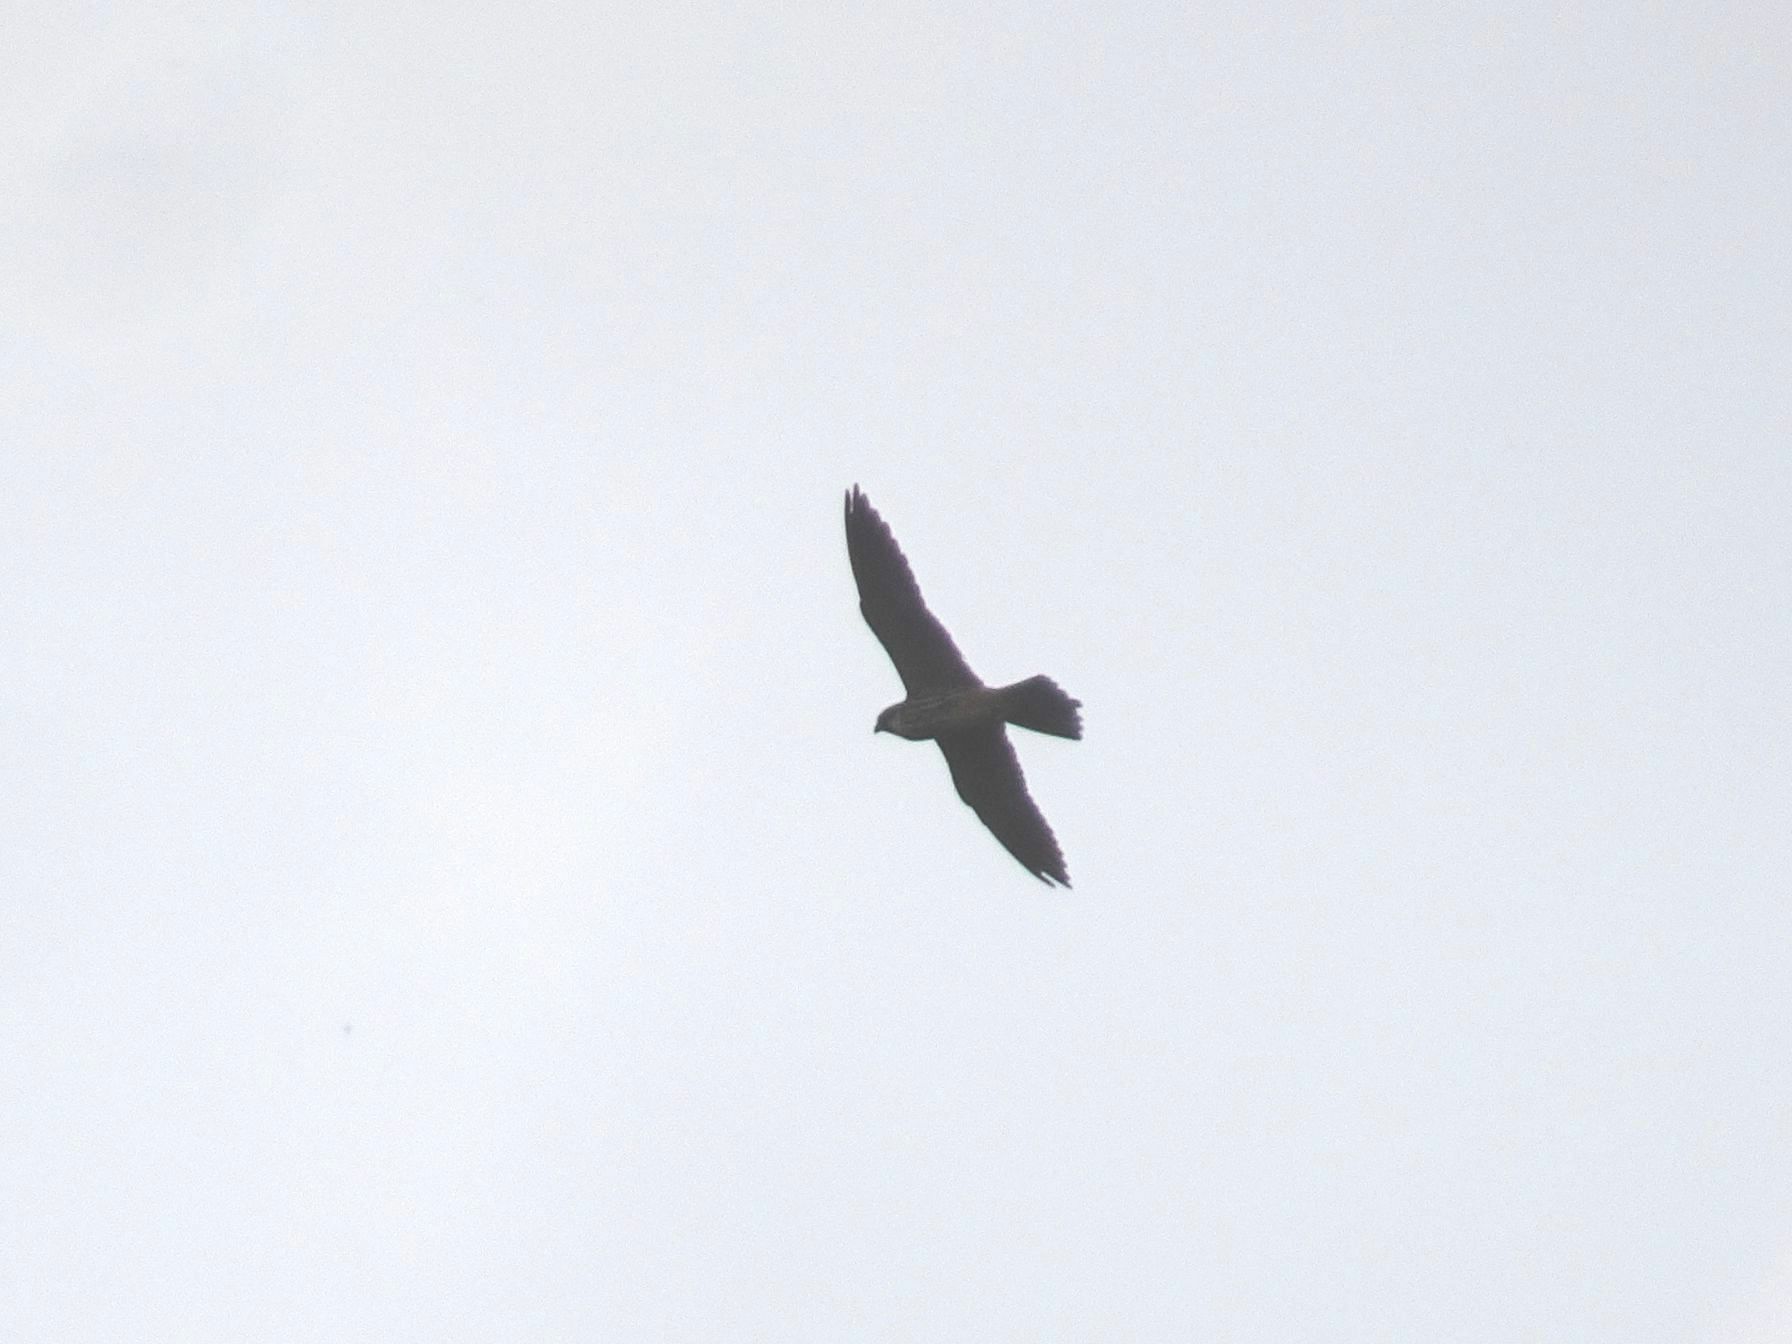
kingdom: Animalia
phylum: Chordata
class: Aves
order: Falconiformes
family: Falconidae
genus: Falco
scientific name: Falco subbuteo
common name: Eurasian hobby
